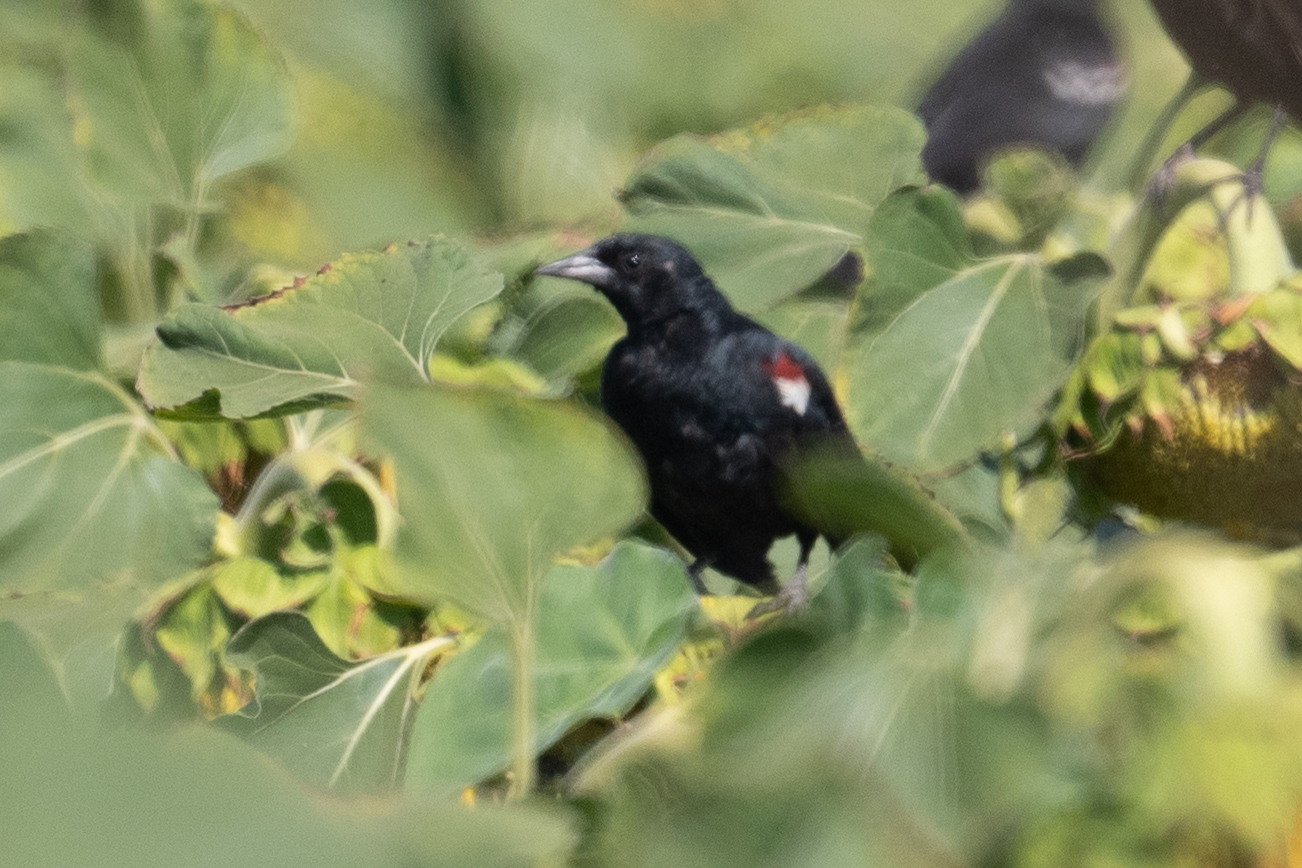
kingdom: Animalia
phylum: Chordata
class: Aves
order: Passeriformes
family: Icteridae
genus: Agelaius
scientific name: Agelaius tricolor
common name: Tricolored blackbird
